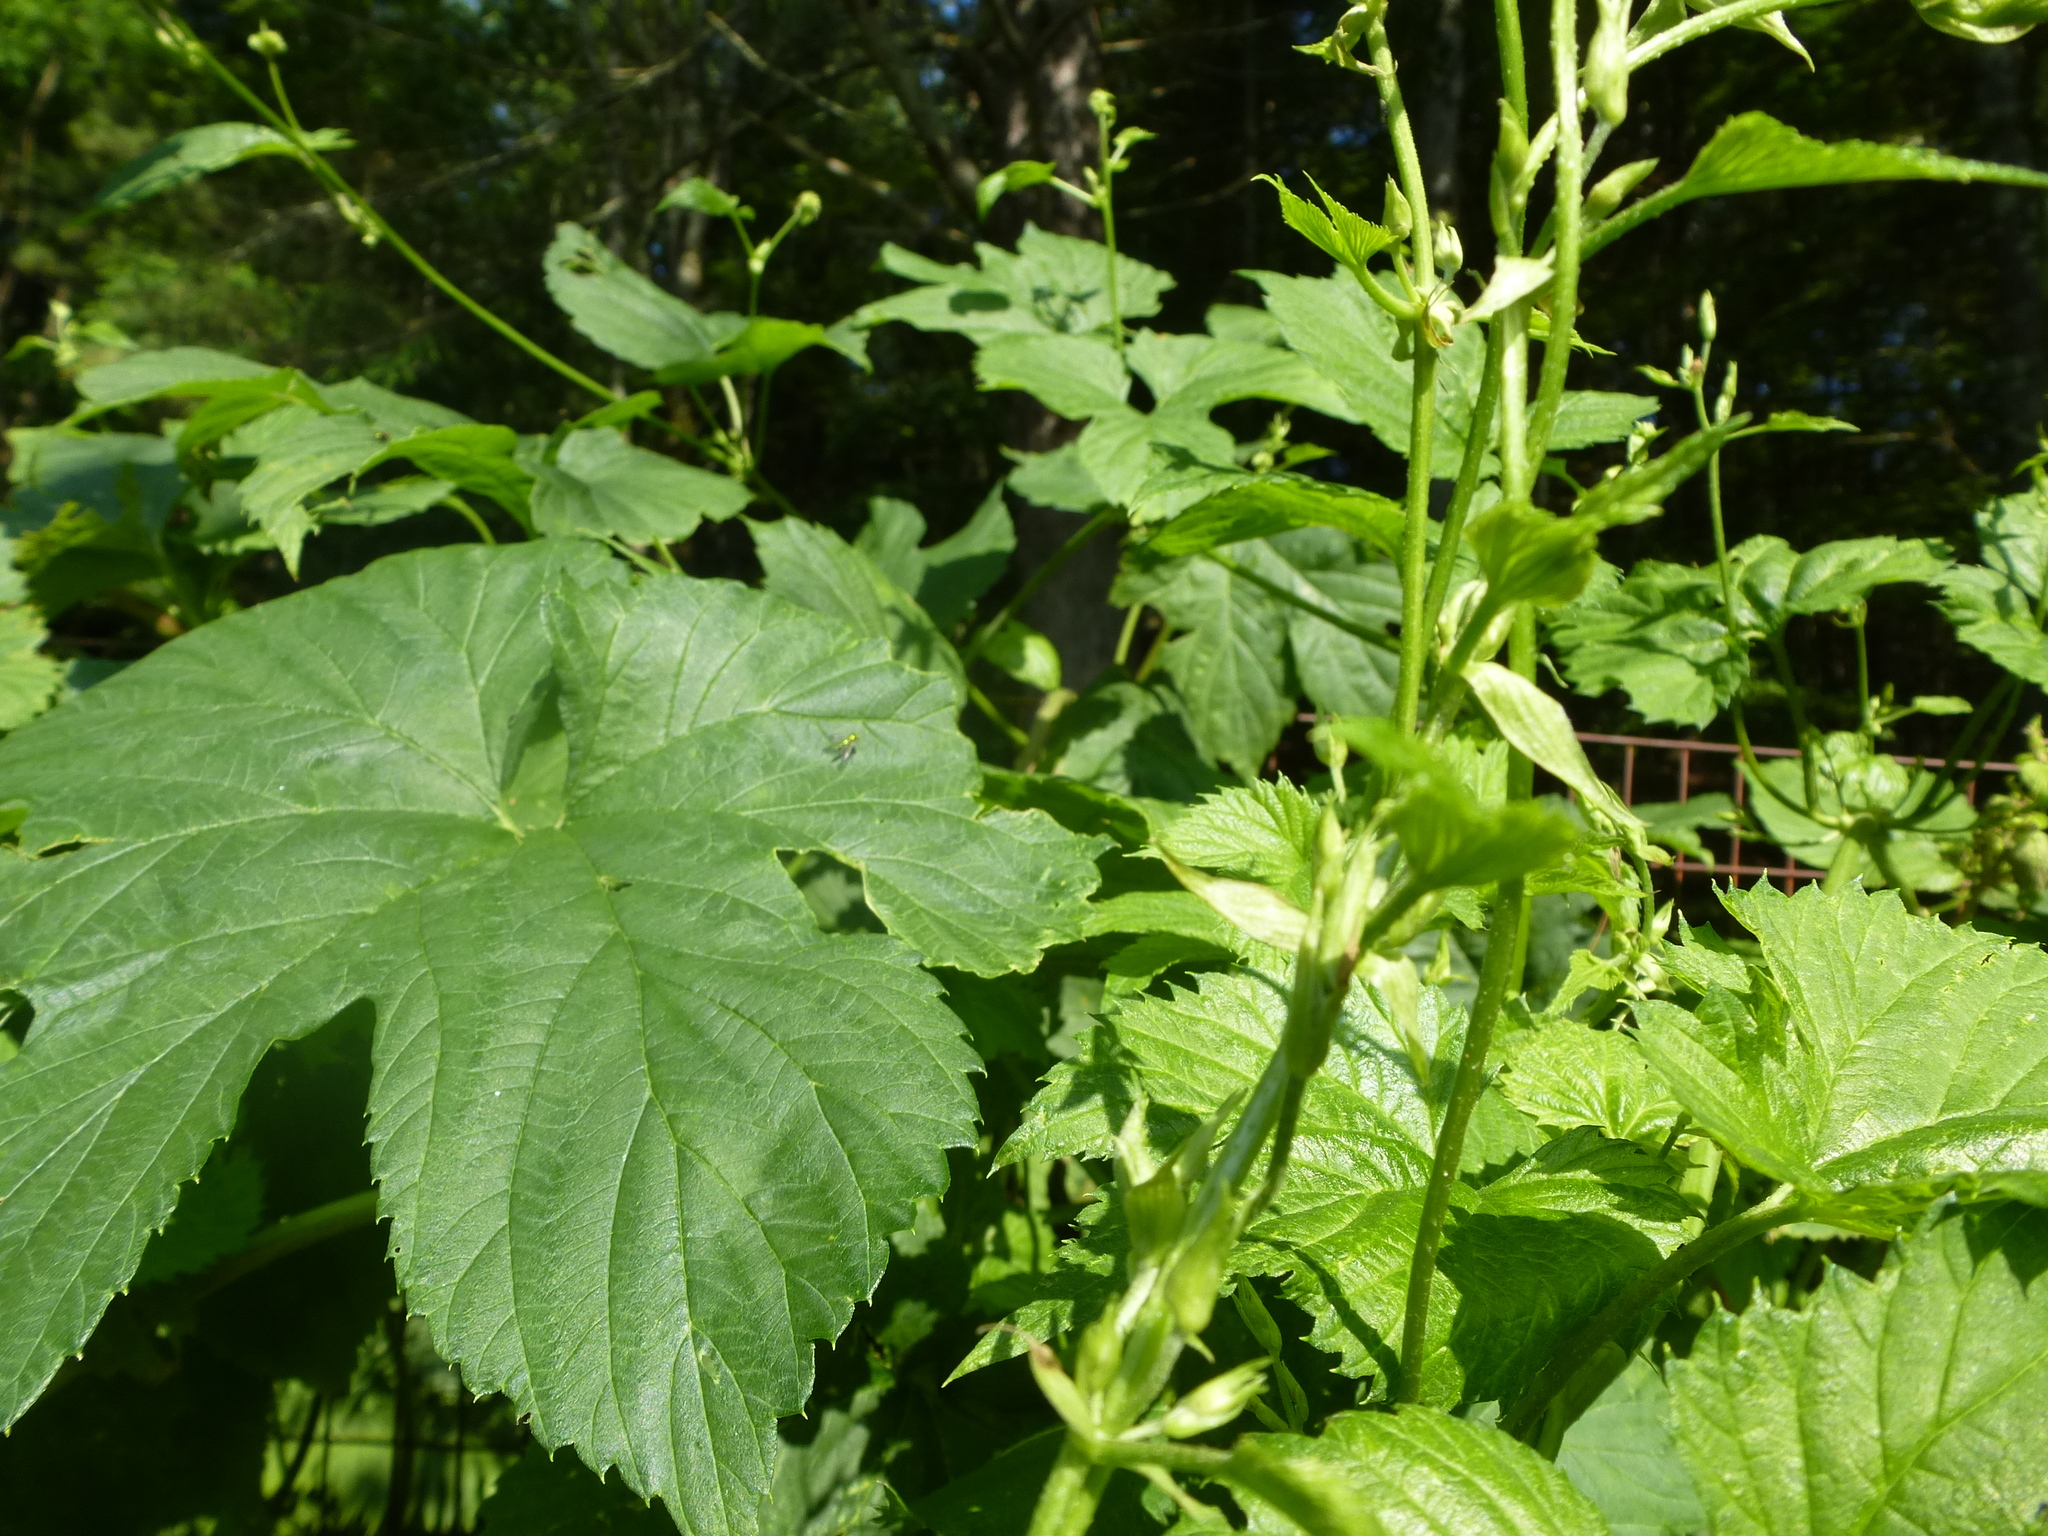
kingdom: Animalia
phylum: Arthropoda
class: Insecta
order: Diptera
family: Dolichopodidae
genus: Condylostylus
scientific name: Condylostylus patibulatus
